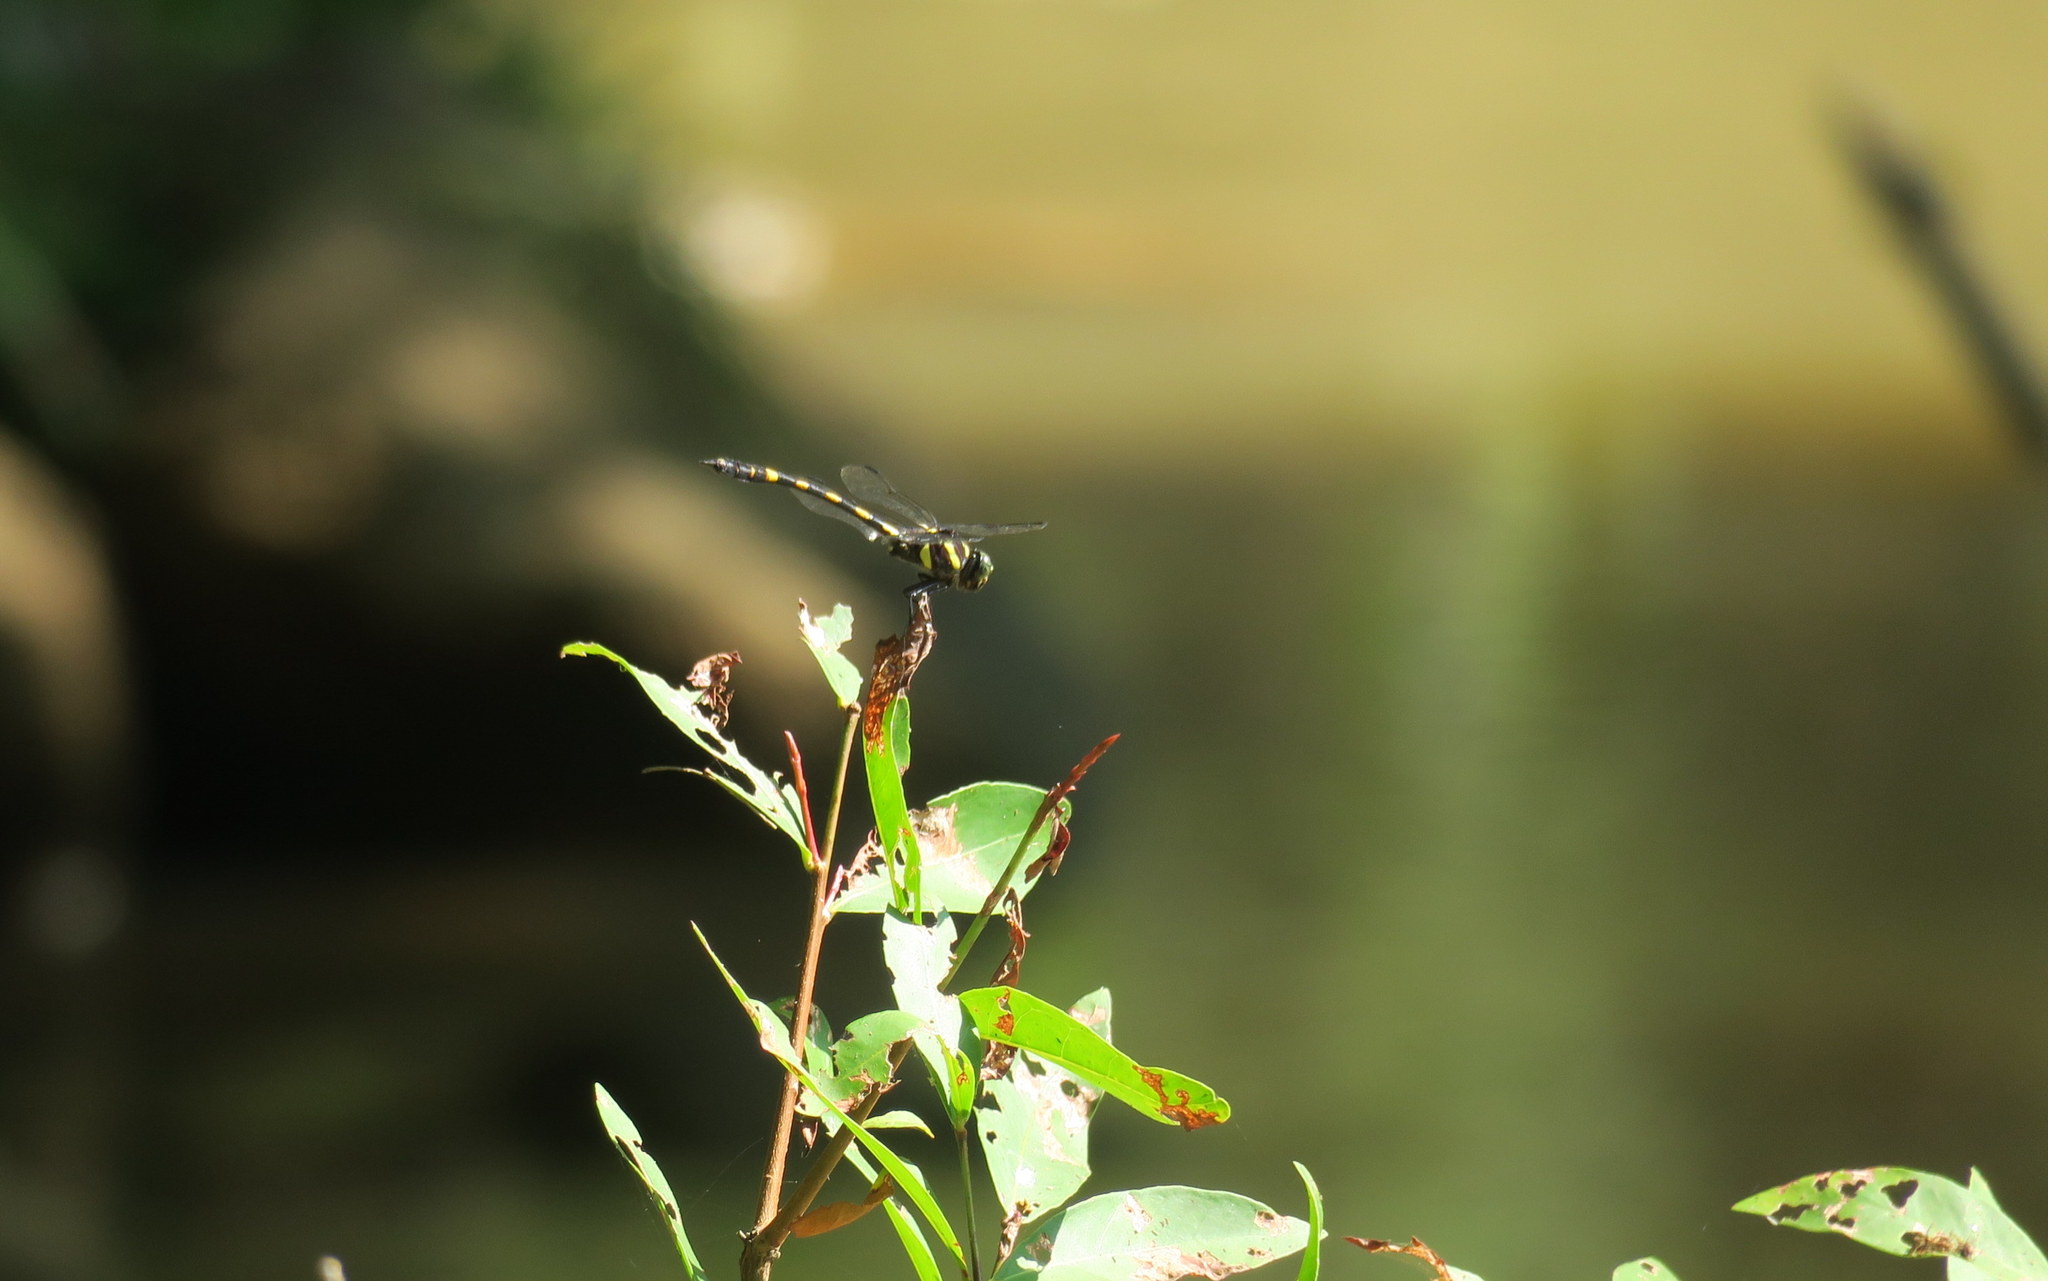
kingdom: Animalia
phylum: Arthropoda
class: Insecta
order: Odonata
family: Gomphidae
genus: Ictinogomphus
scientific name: Ictinogomphus decoratus
